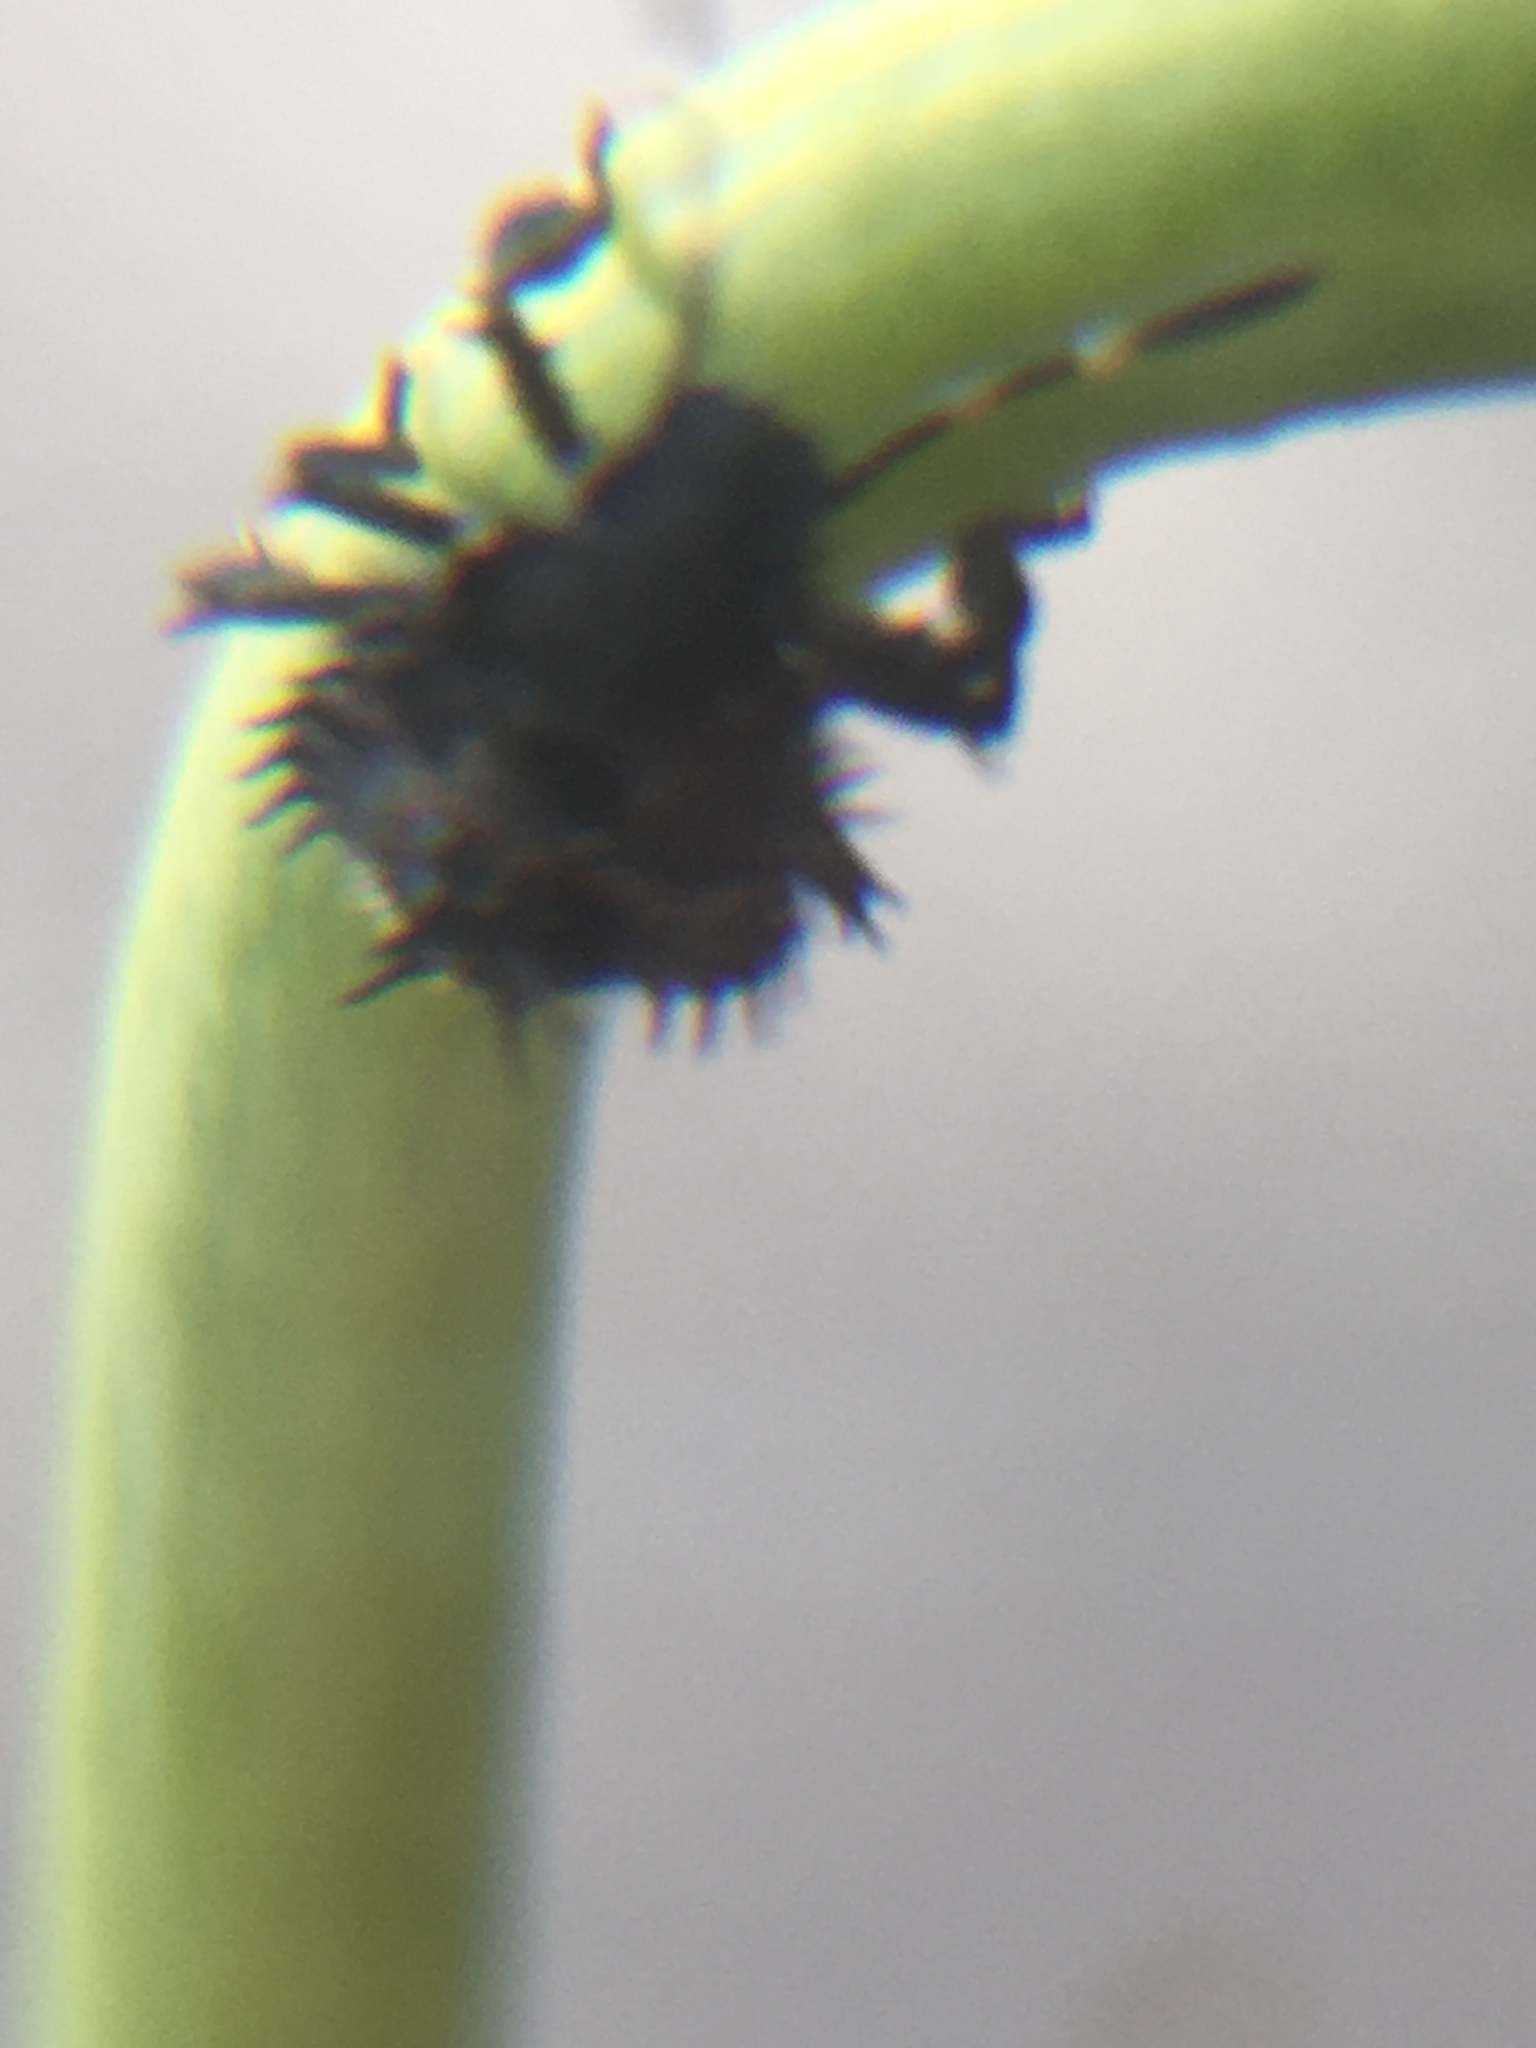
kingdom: Animalia
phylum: Arthropoda
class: Insecta
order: Hemiptera
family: Pentatomidae
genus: Halyomorpha
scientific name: Halyomorpha
